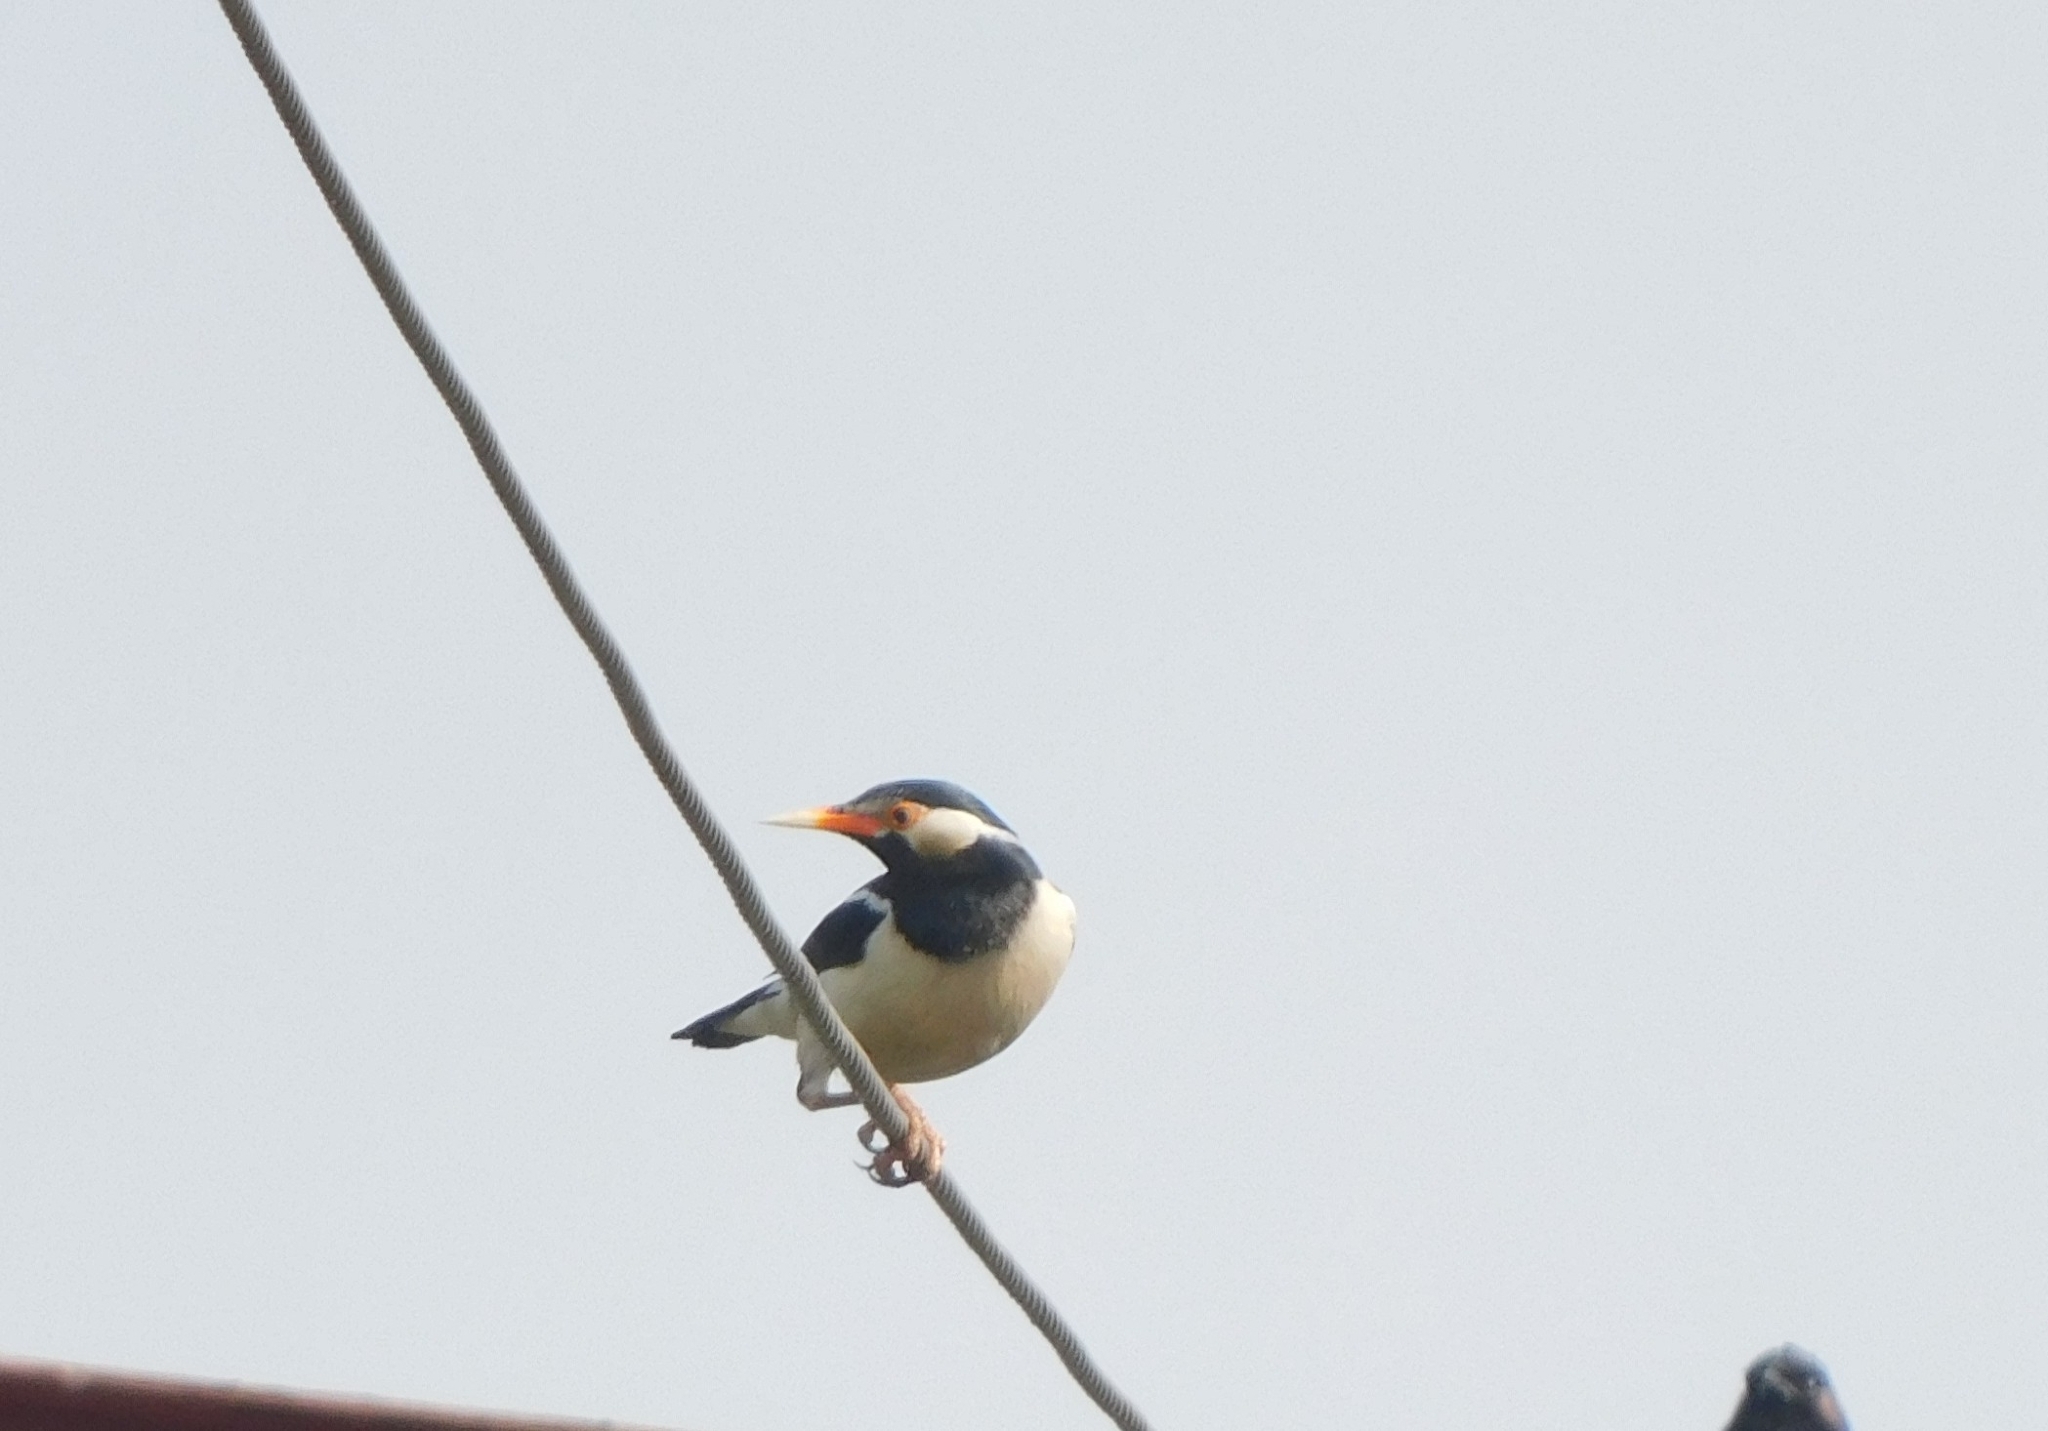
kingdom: Animalia
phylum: Chordata
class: Aves
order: Passeriformes
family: Sturnidae
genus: Gracupica
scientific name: Gracupica contra
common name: Pied myna
